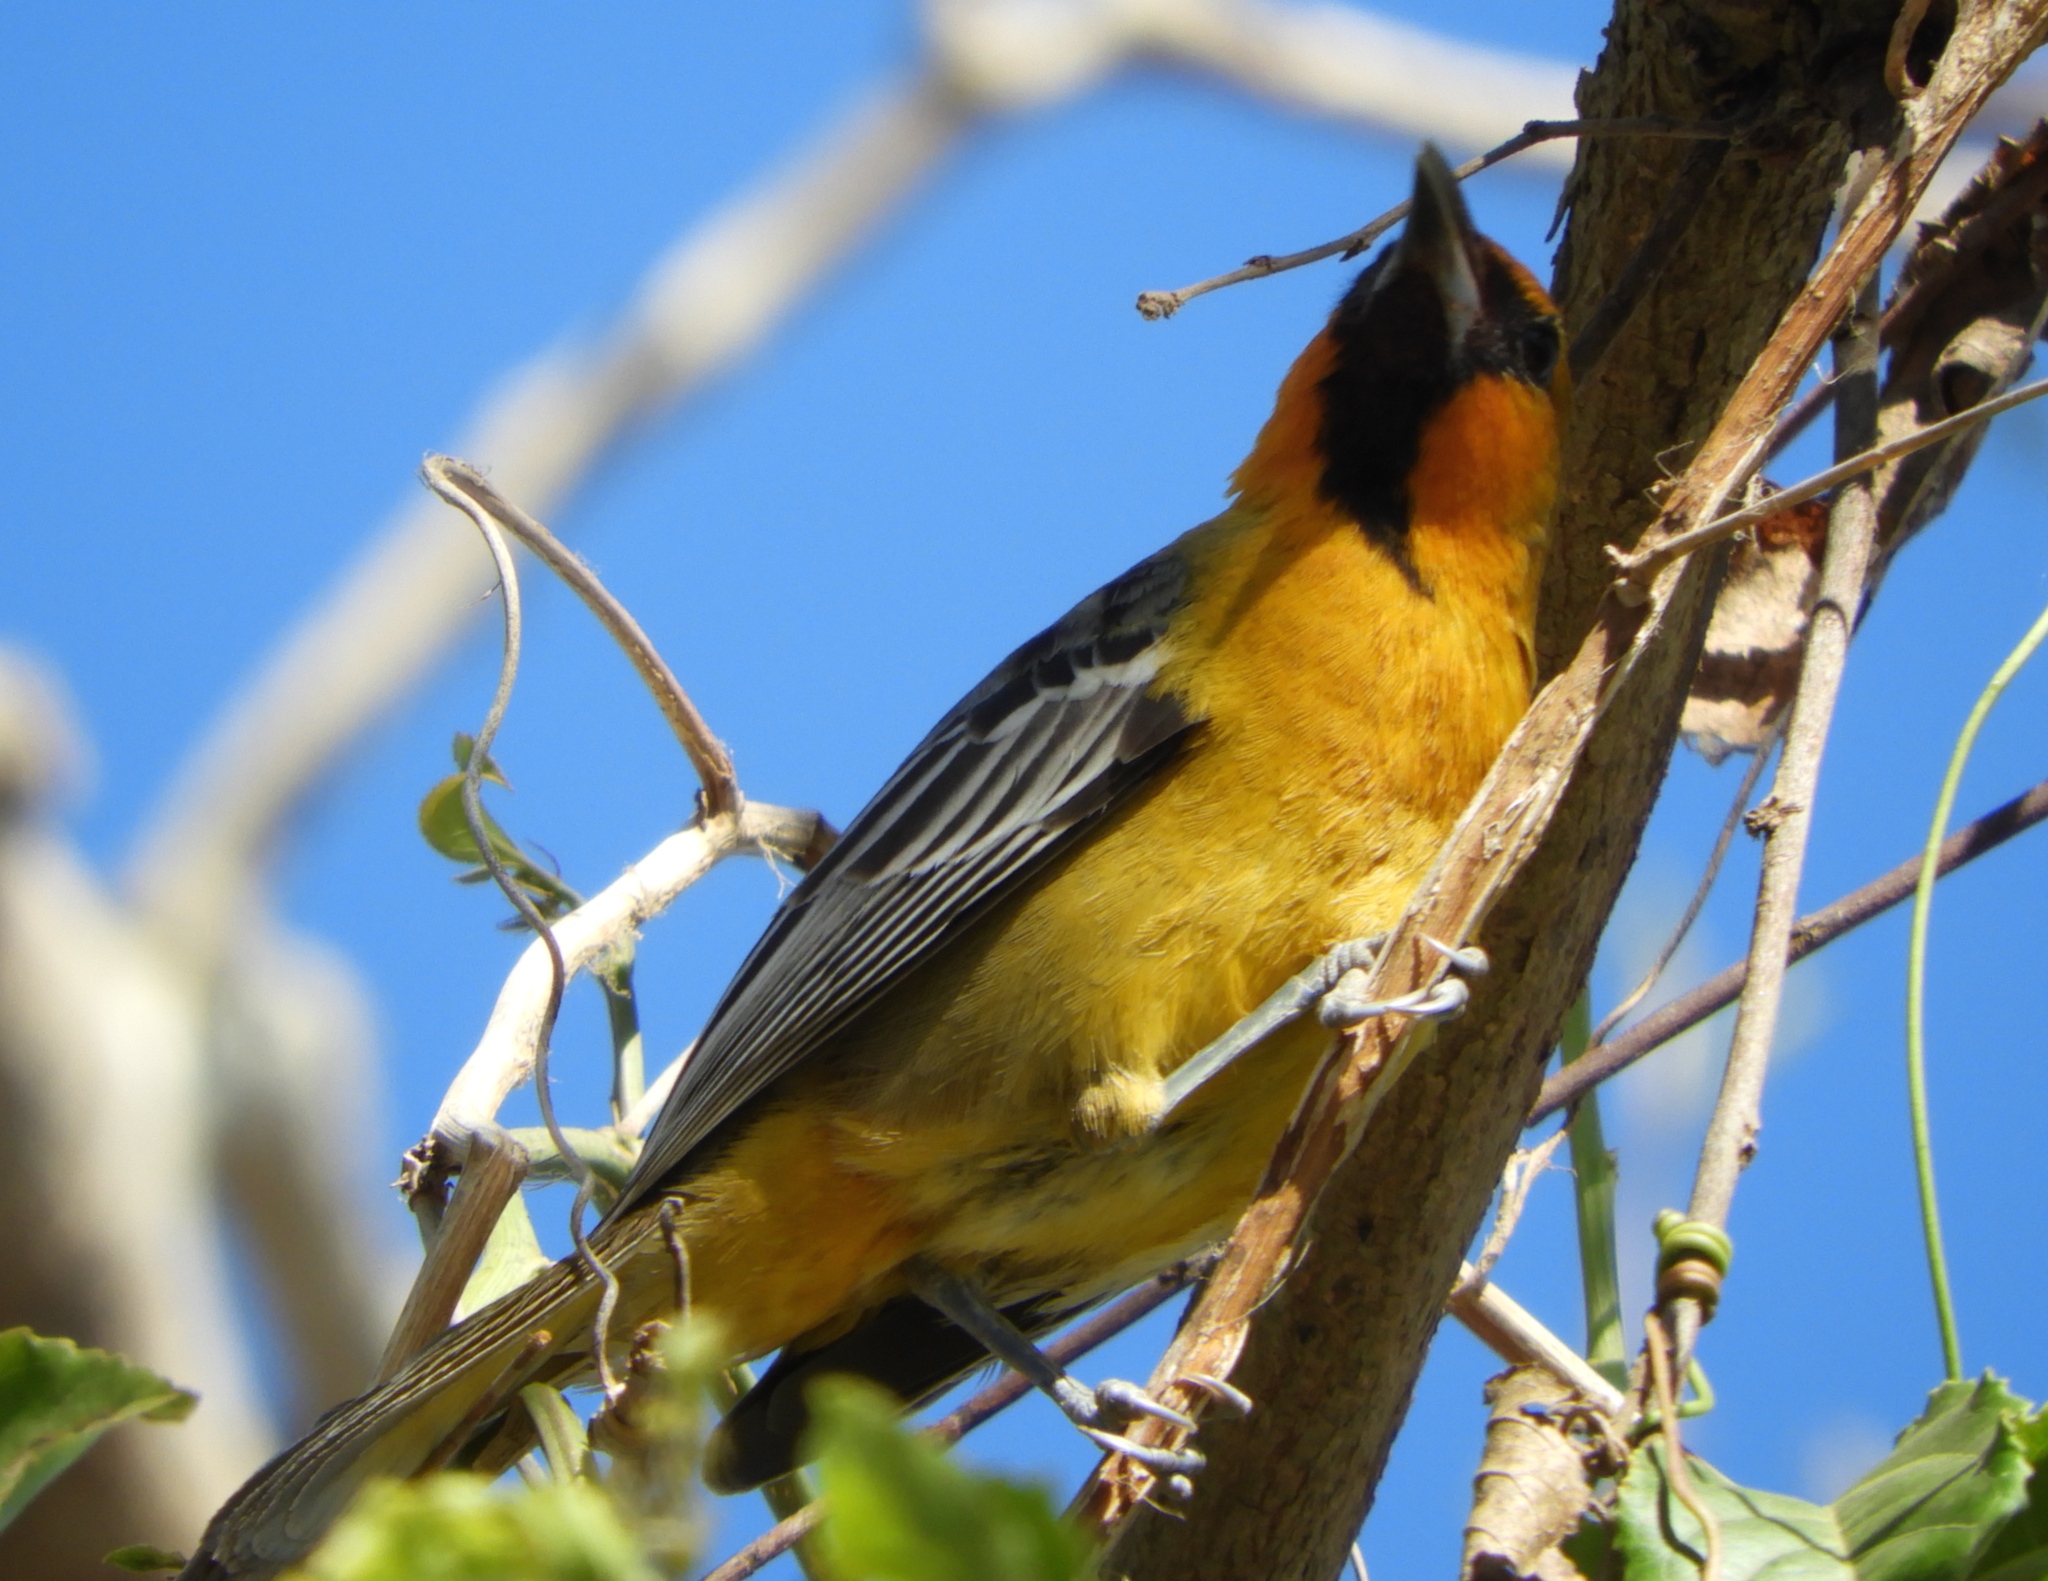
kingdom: Animalia
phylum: Chordata
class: Aves
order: Passeriformes
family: Icteridae
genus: Icterus
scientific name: Icterus pustulatus
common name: Streak-backed oriole
